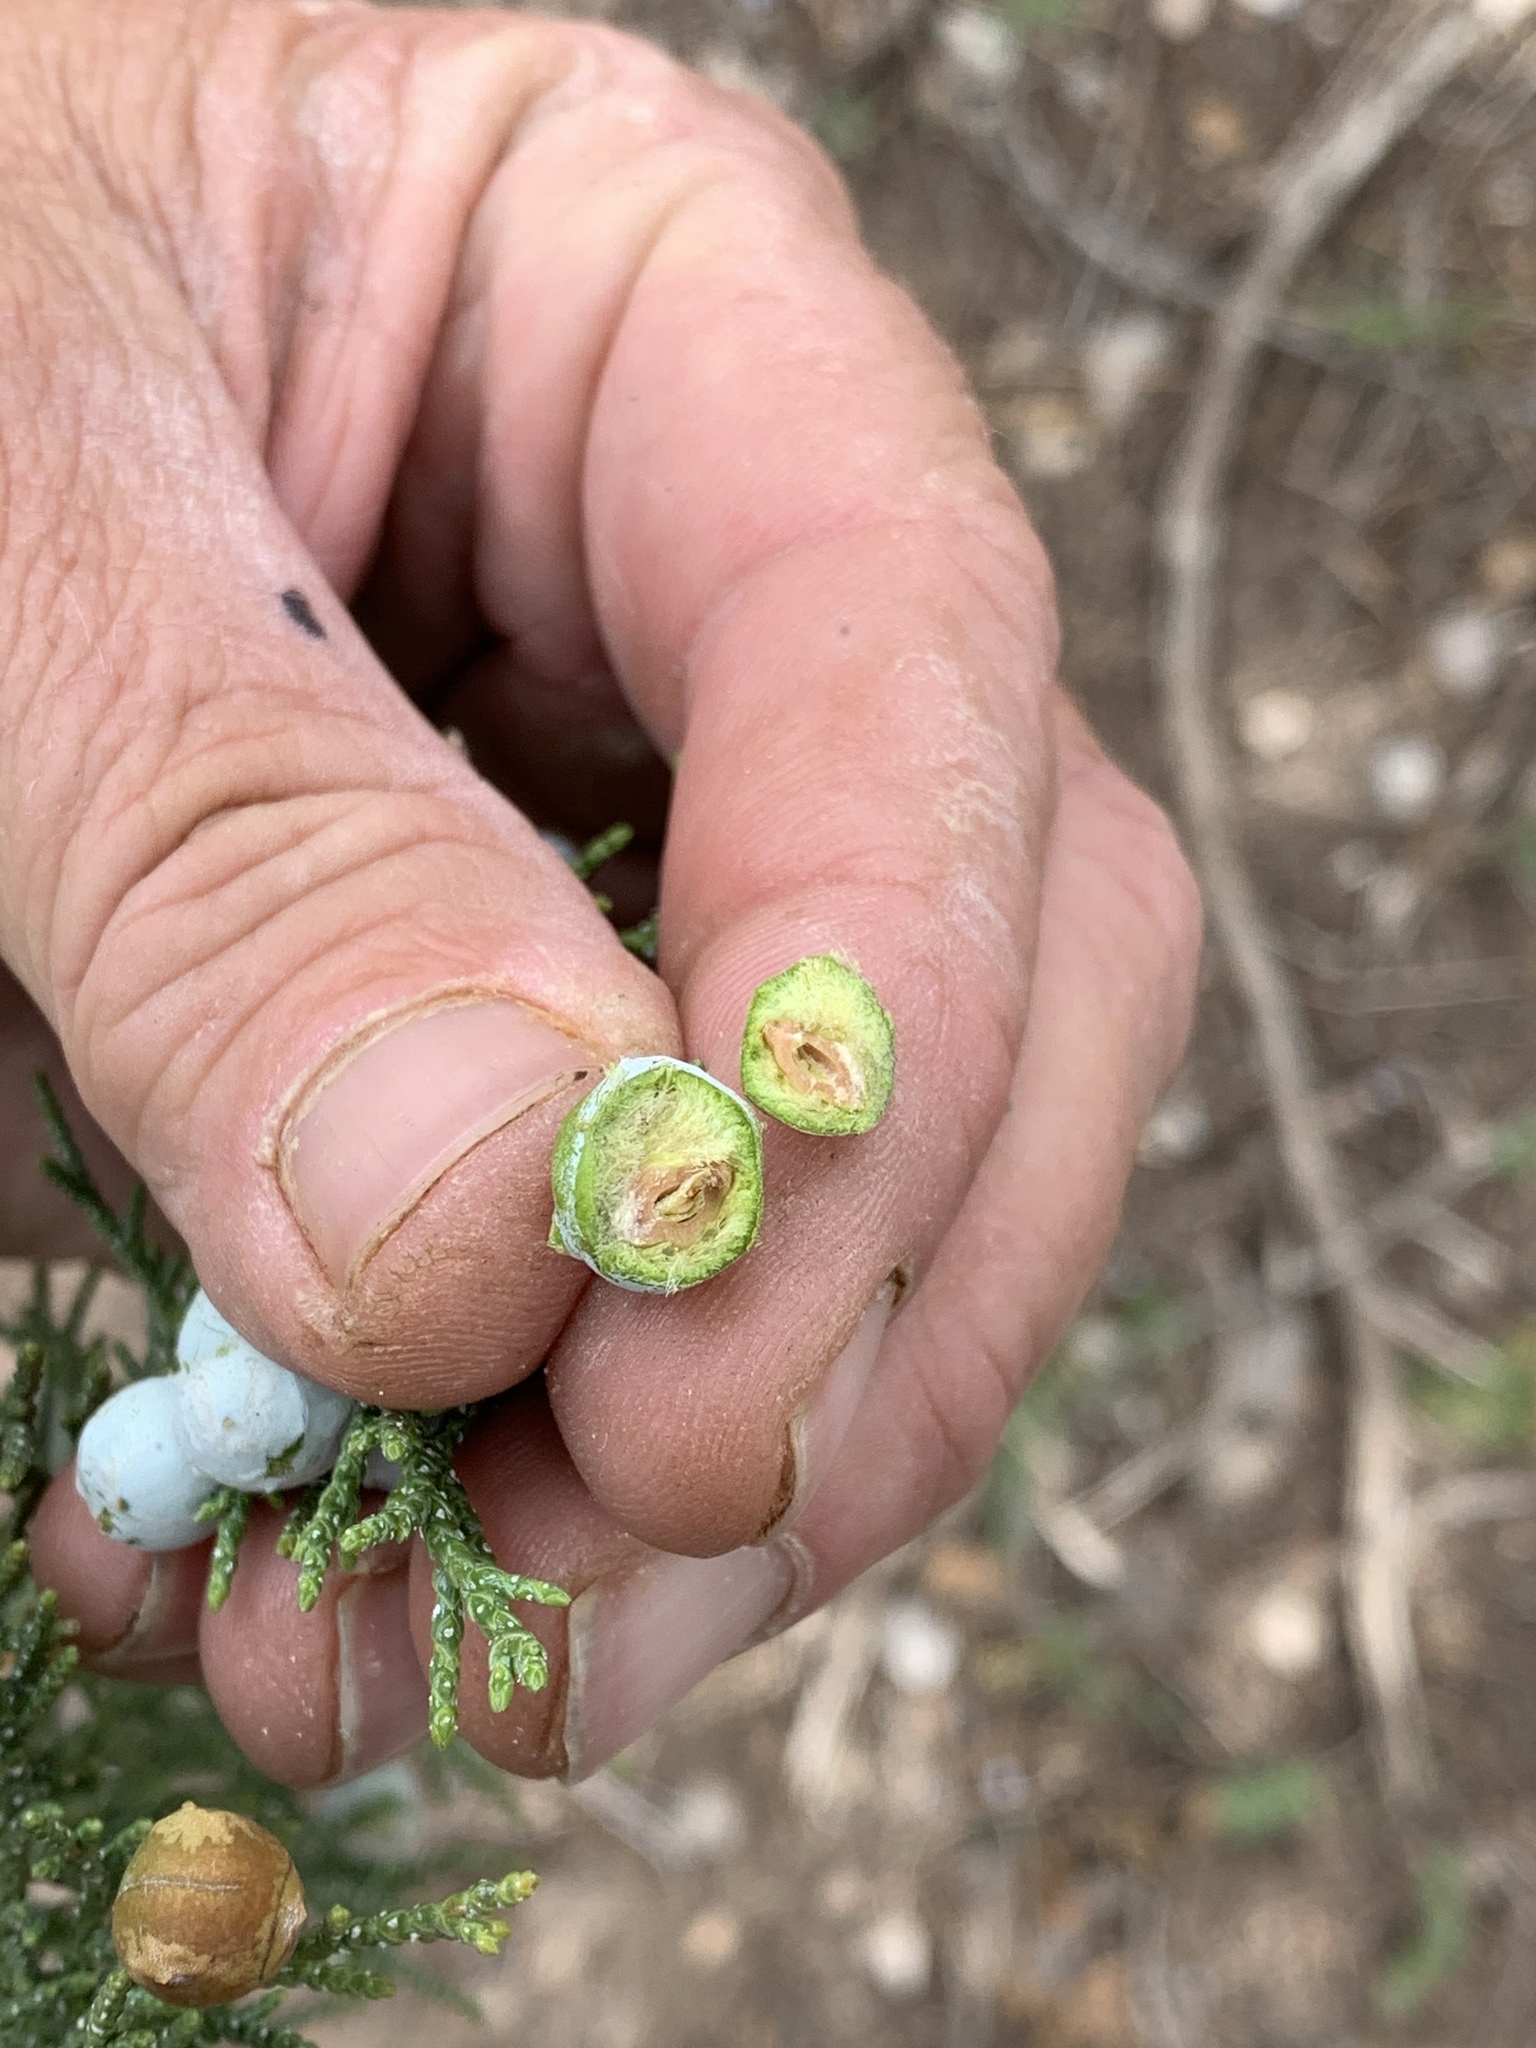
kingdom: Plantae
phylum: Tracheophyta
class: Pinopsida
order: Pinales
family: Cupressaceae
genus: Juniperus
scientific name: Juniperus deppeana
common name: Alligator juniper
